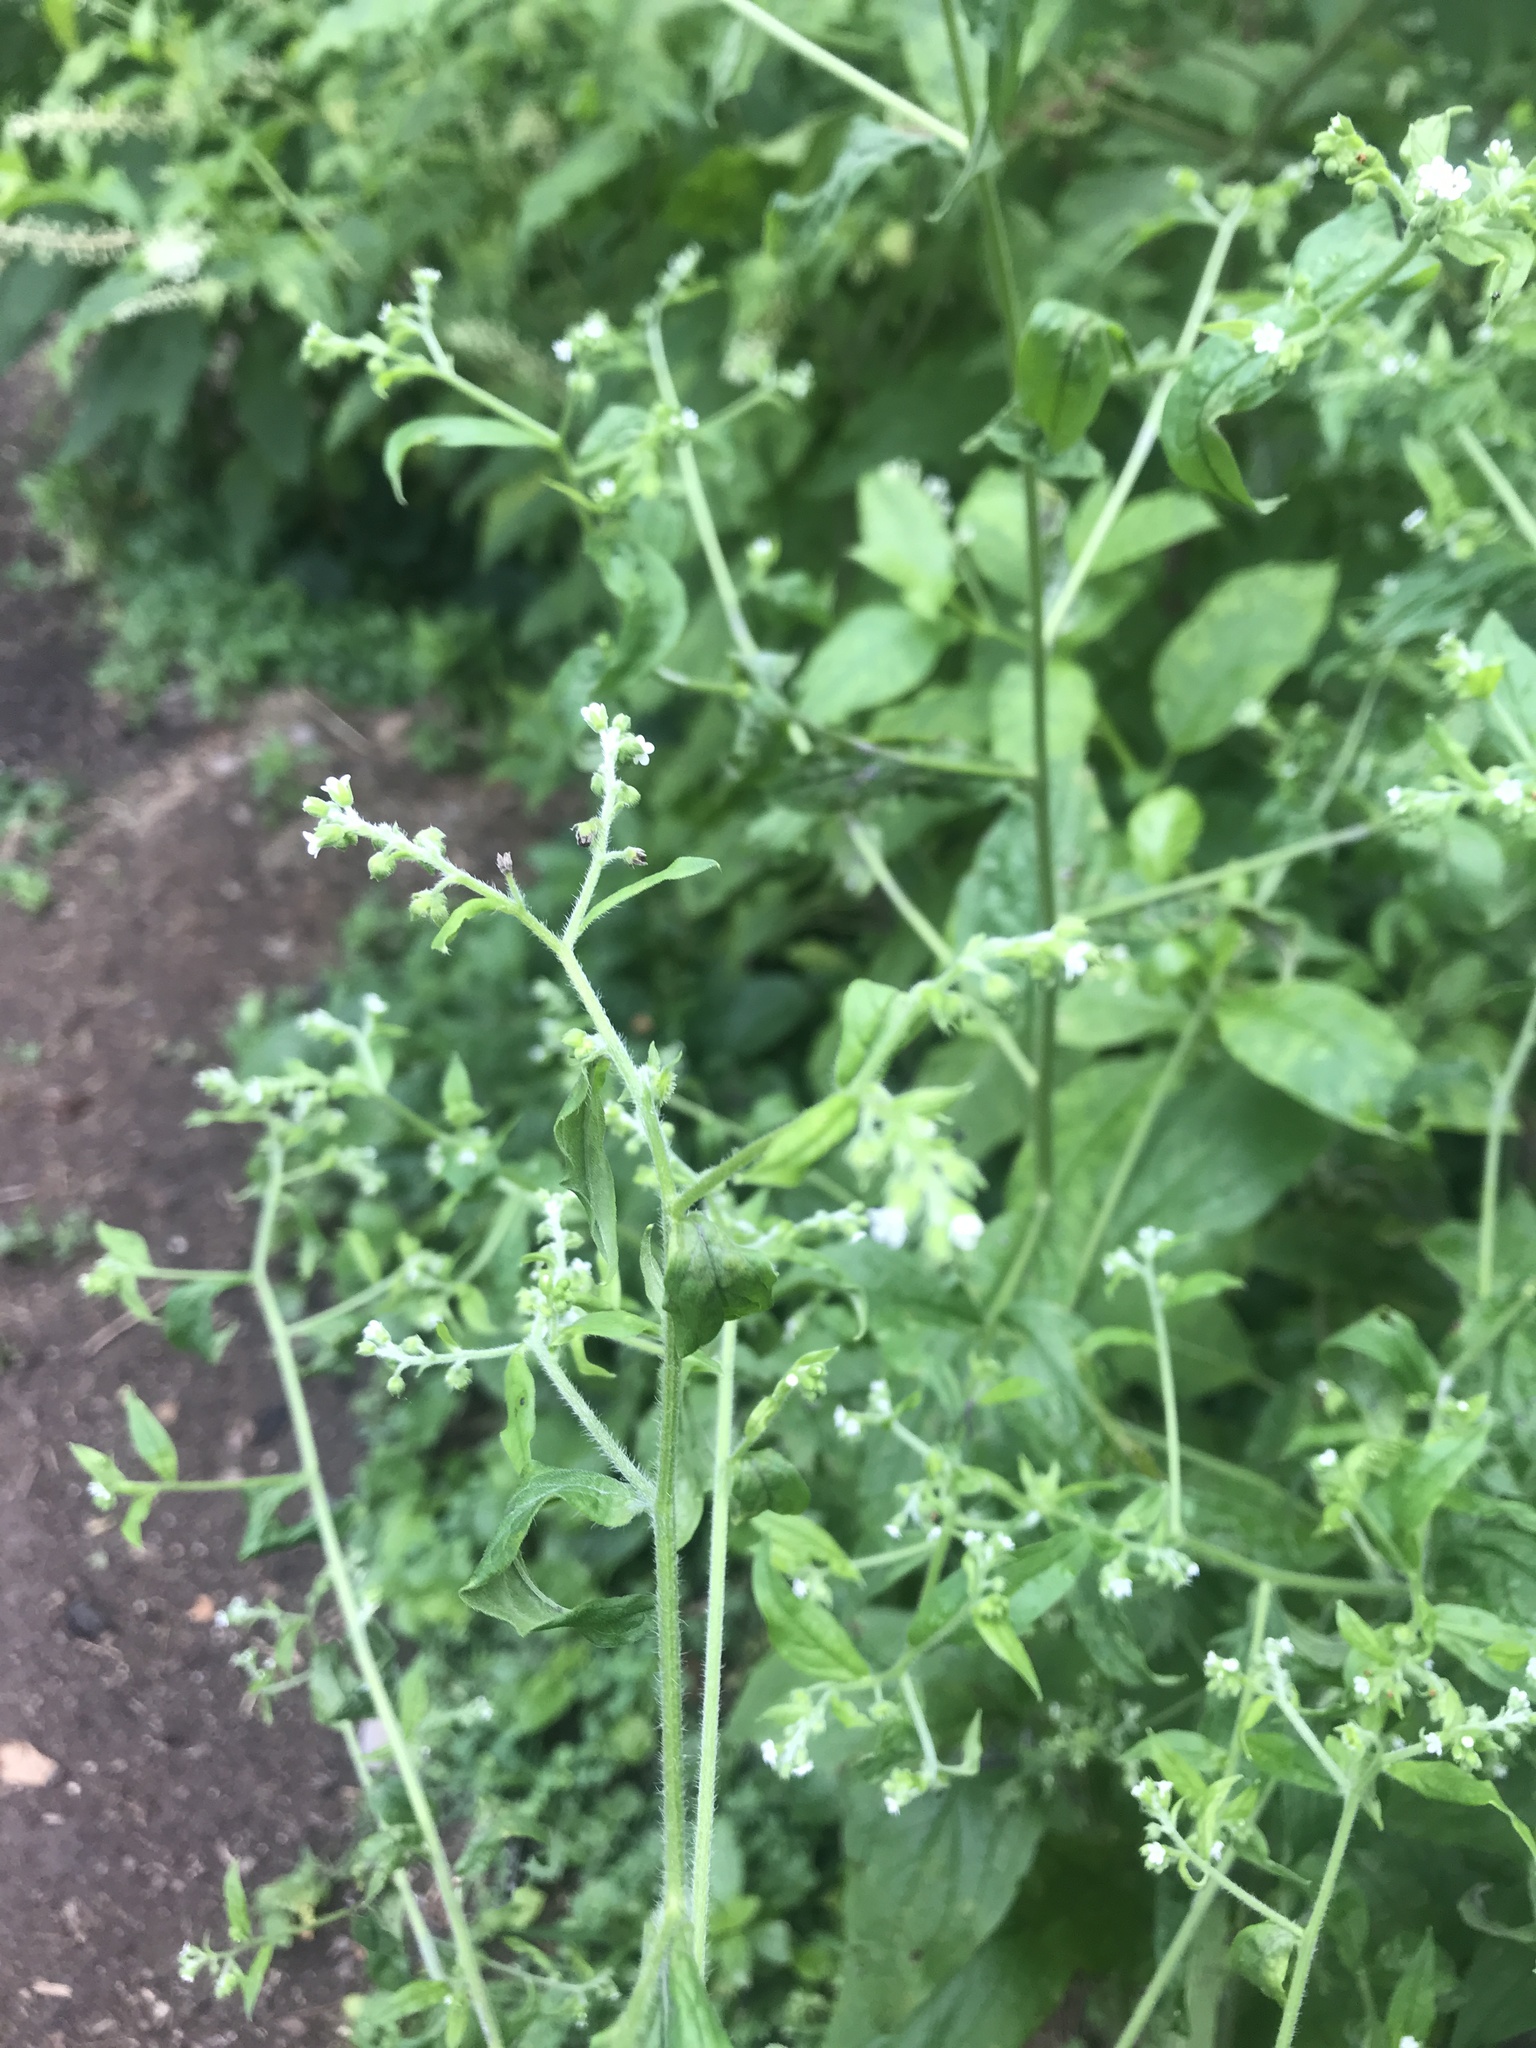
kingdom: Plantae
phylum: Tracheophyta
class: Magnoliopsida
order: Boraginales
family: Boraginaceae
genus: Hackelia
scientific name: Hackelia virginiana
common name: Beggar's-lice
